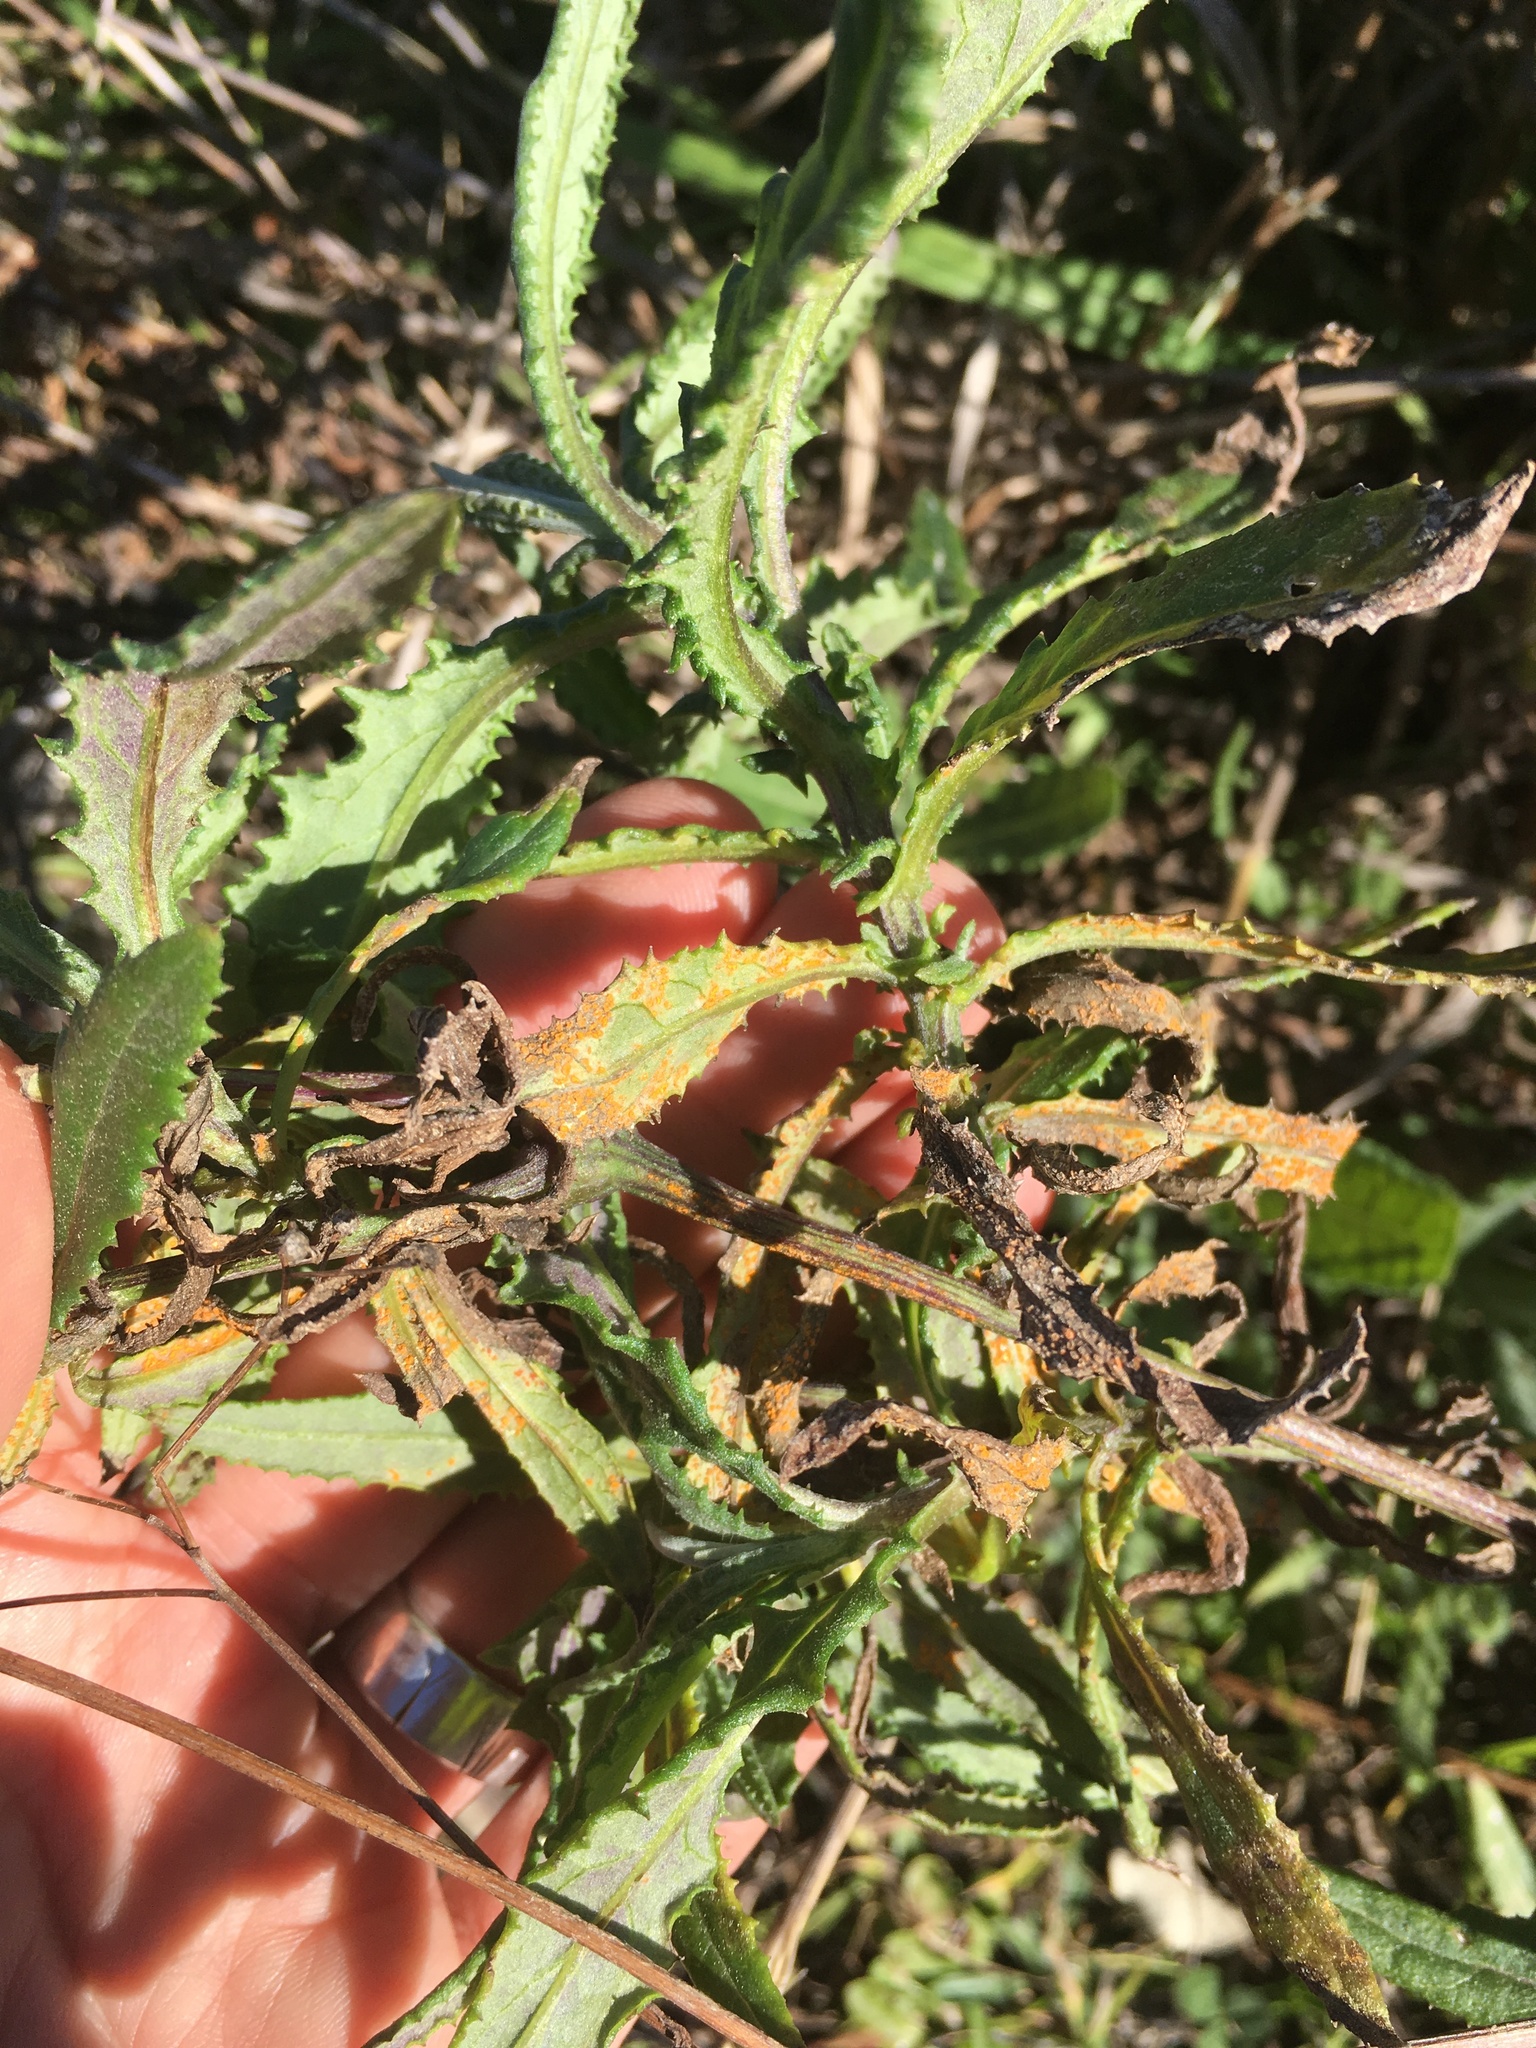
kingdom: Fungi
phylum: Basidiomycota
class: Pucciniomycetes
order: Pucciniales
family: Coleosporiaceae
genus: Coleosporium
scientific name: Coleosporium tussilaginis
